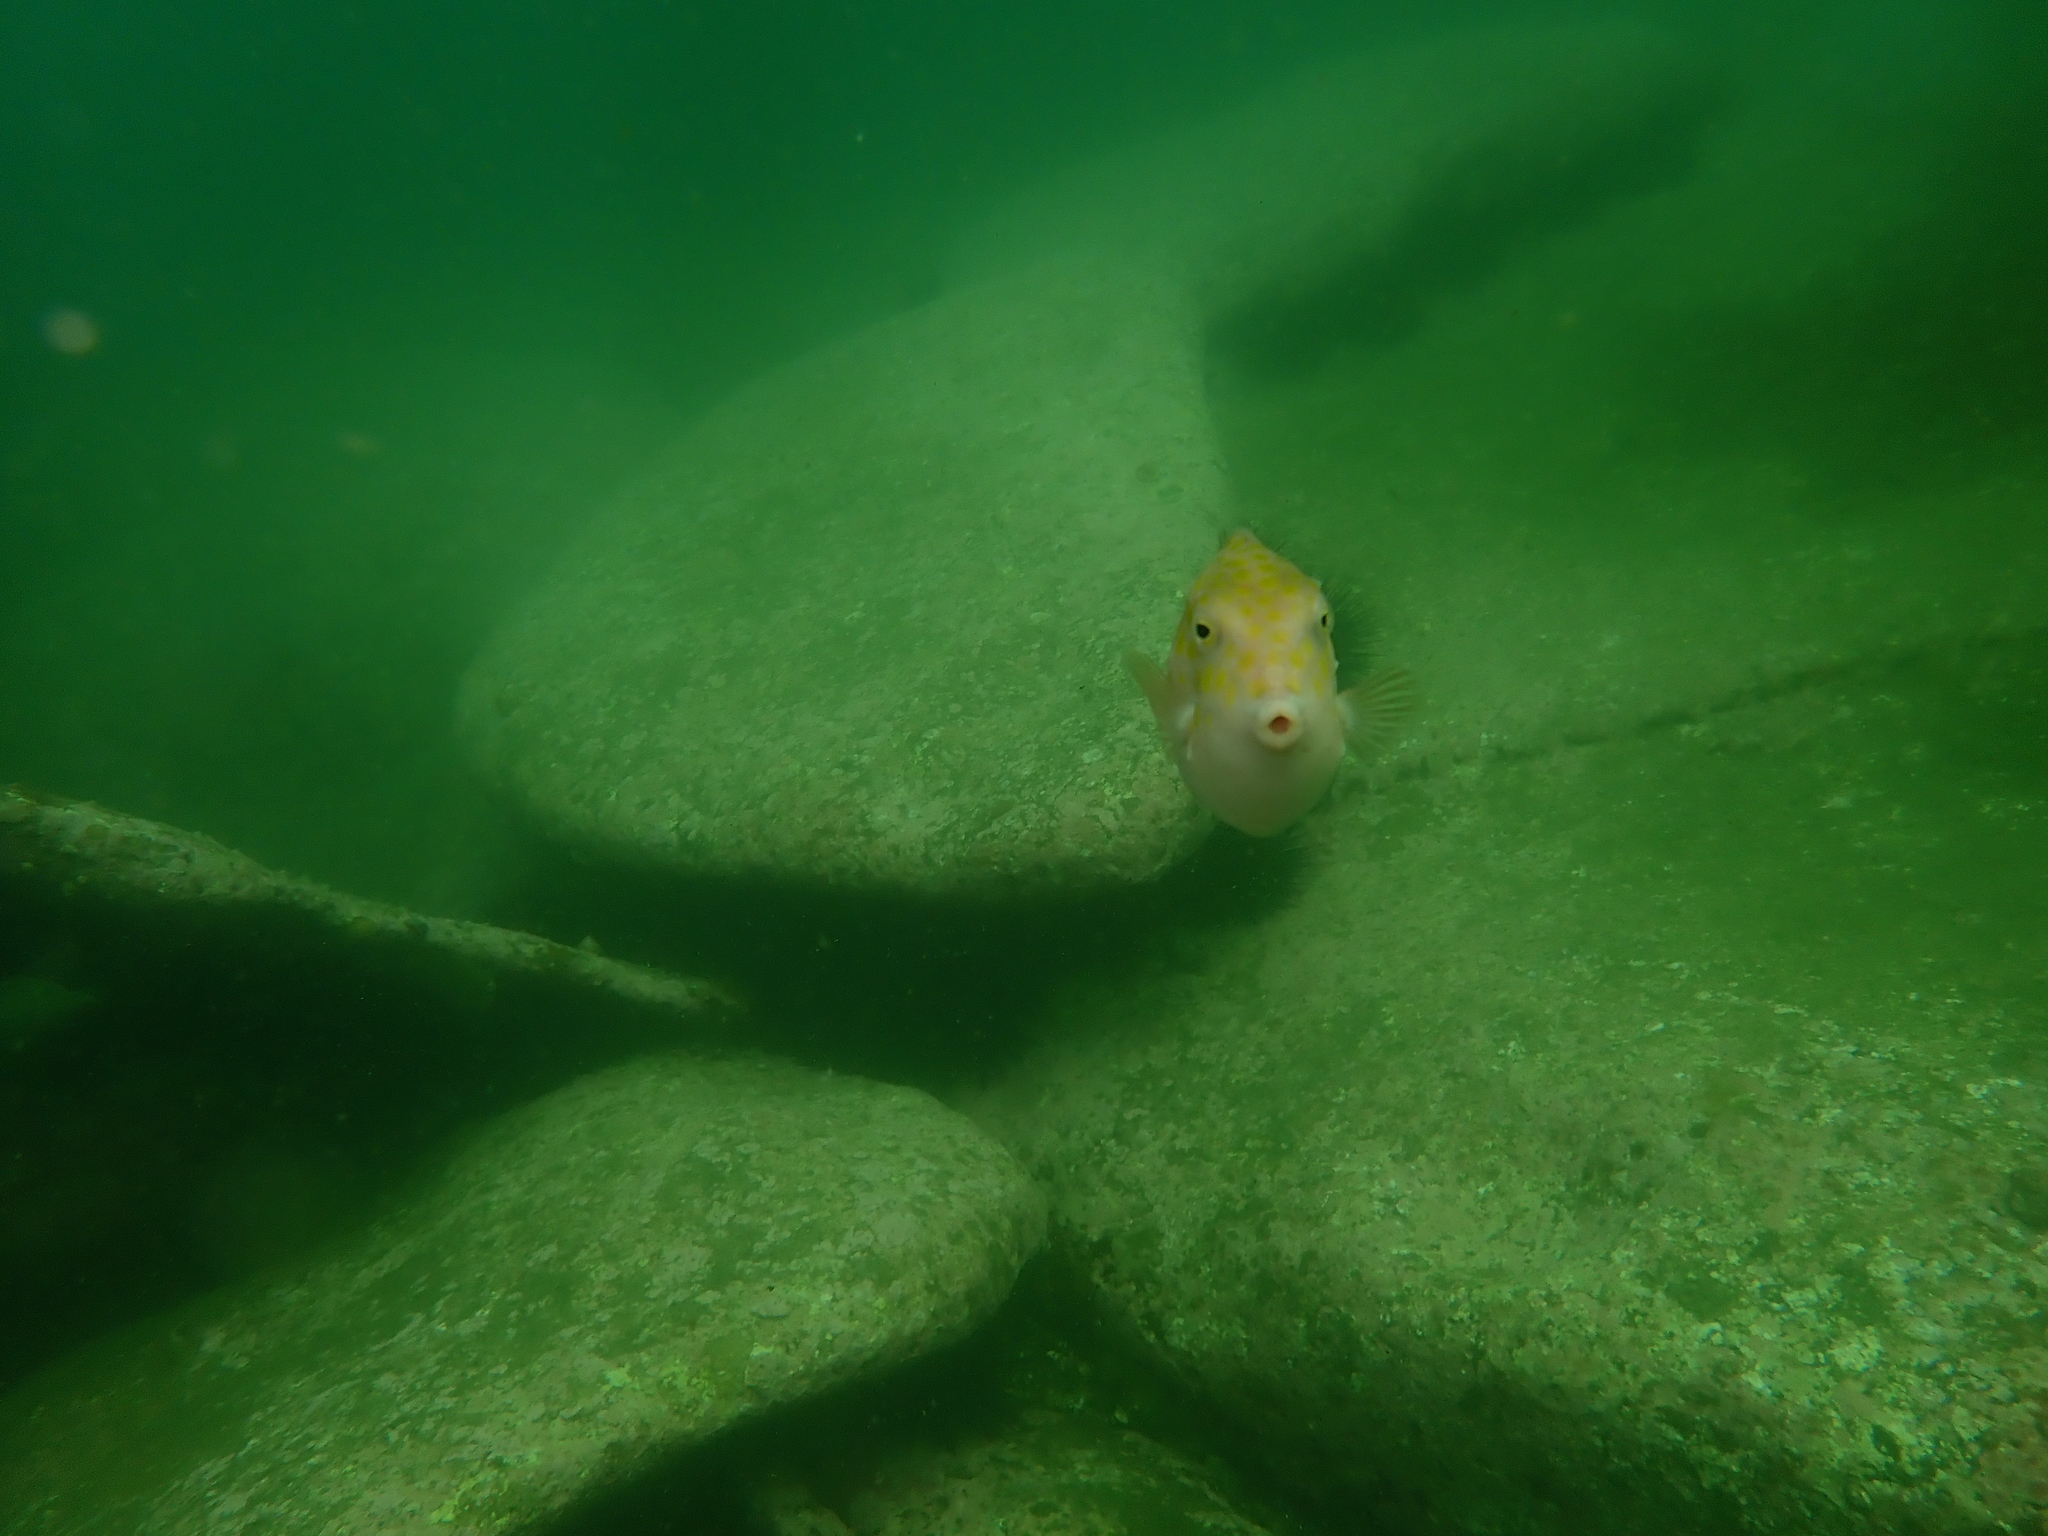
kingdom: Animalia
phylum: Chordata
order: Tetraodontiformes
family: Aracanidae
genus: Anoplocapros
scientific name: Anoplocapros inermis
